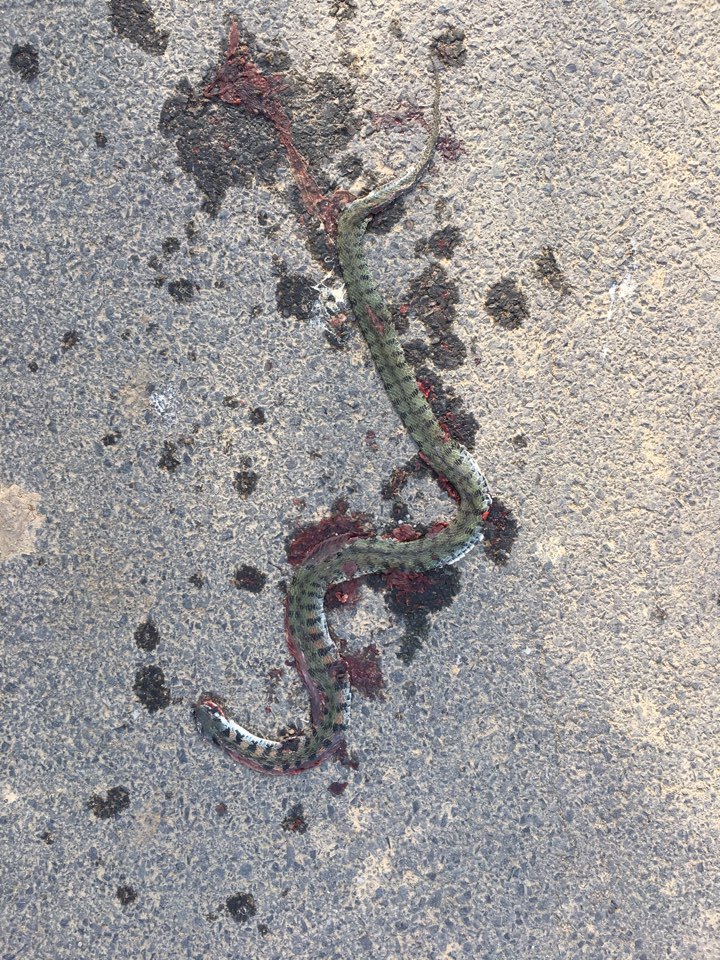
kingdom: Animalia
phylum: Chordata
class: Squamata
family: Colubridae
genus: Rhabdophis
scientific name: Rhabdophis tigrinus
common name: Tiger keelback
